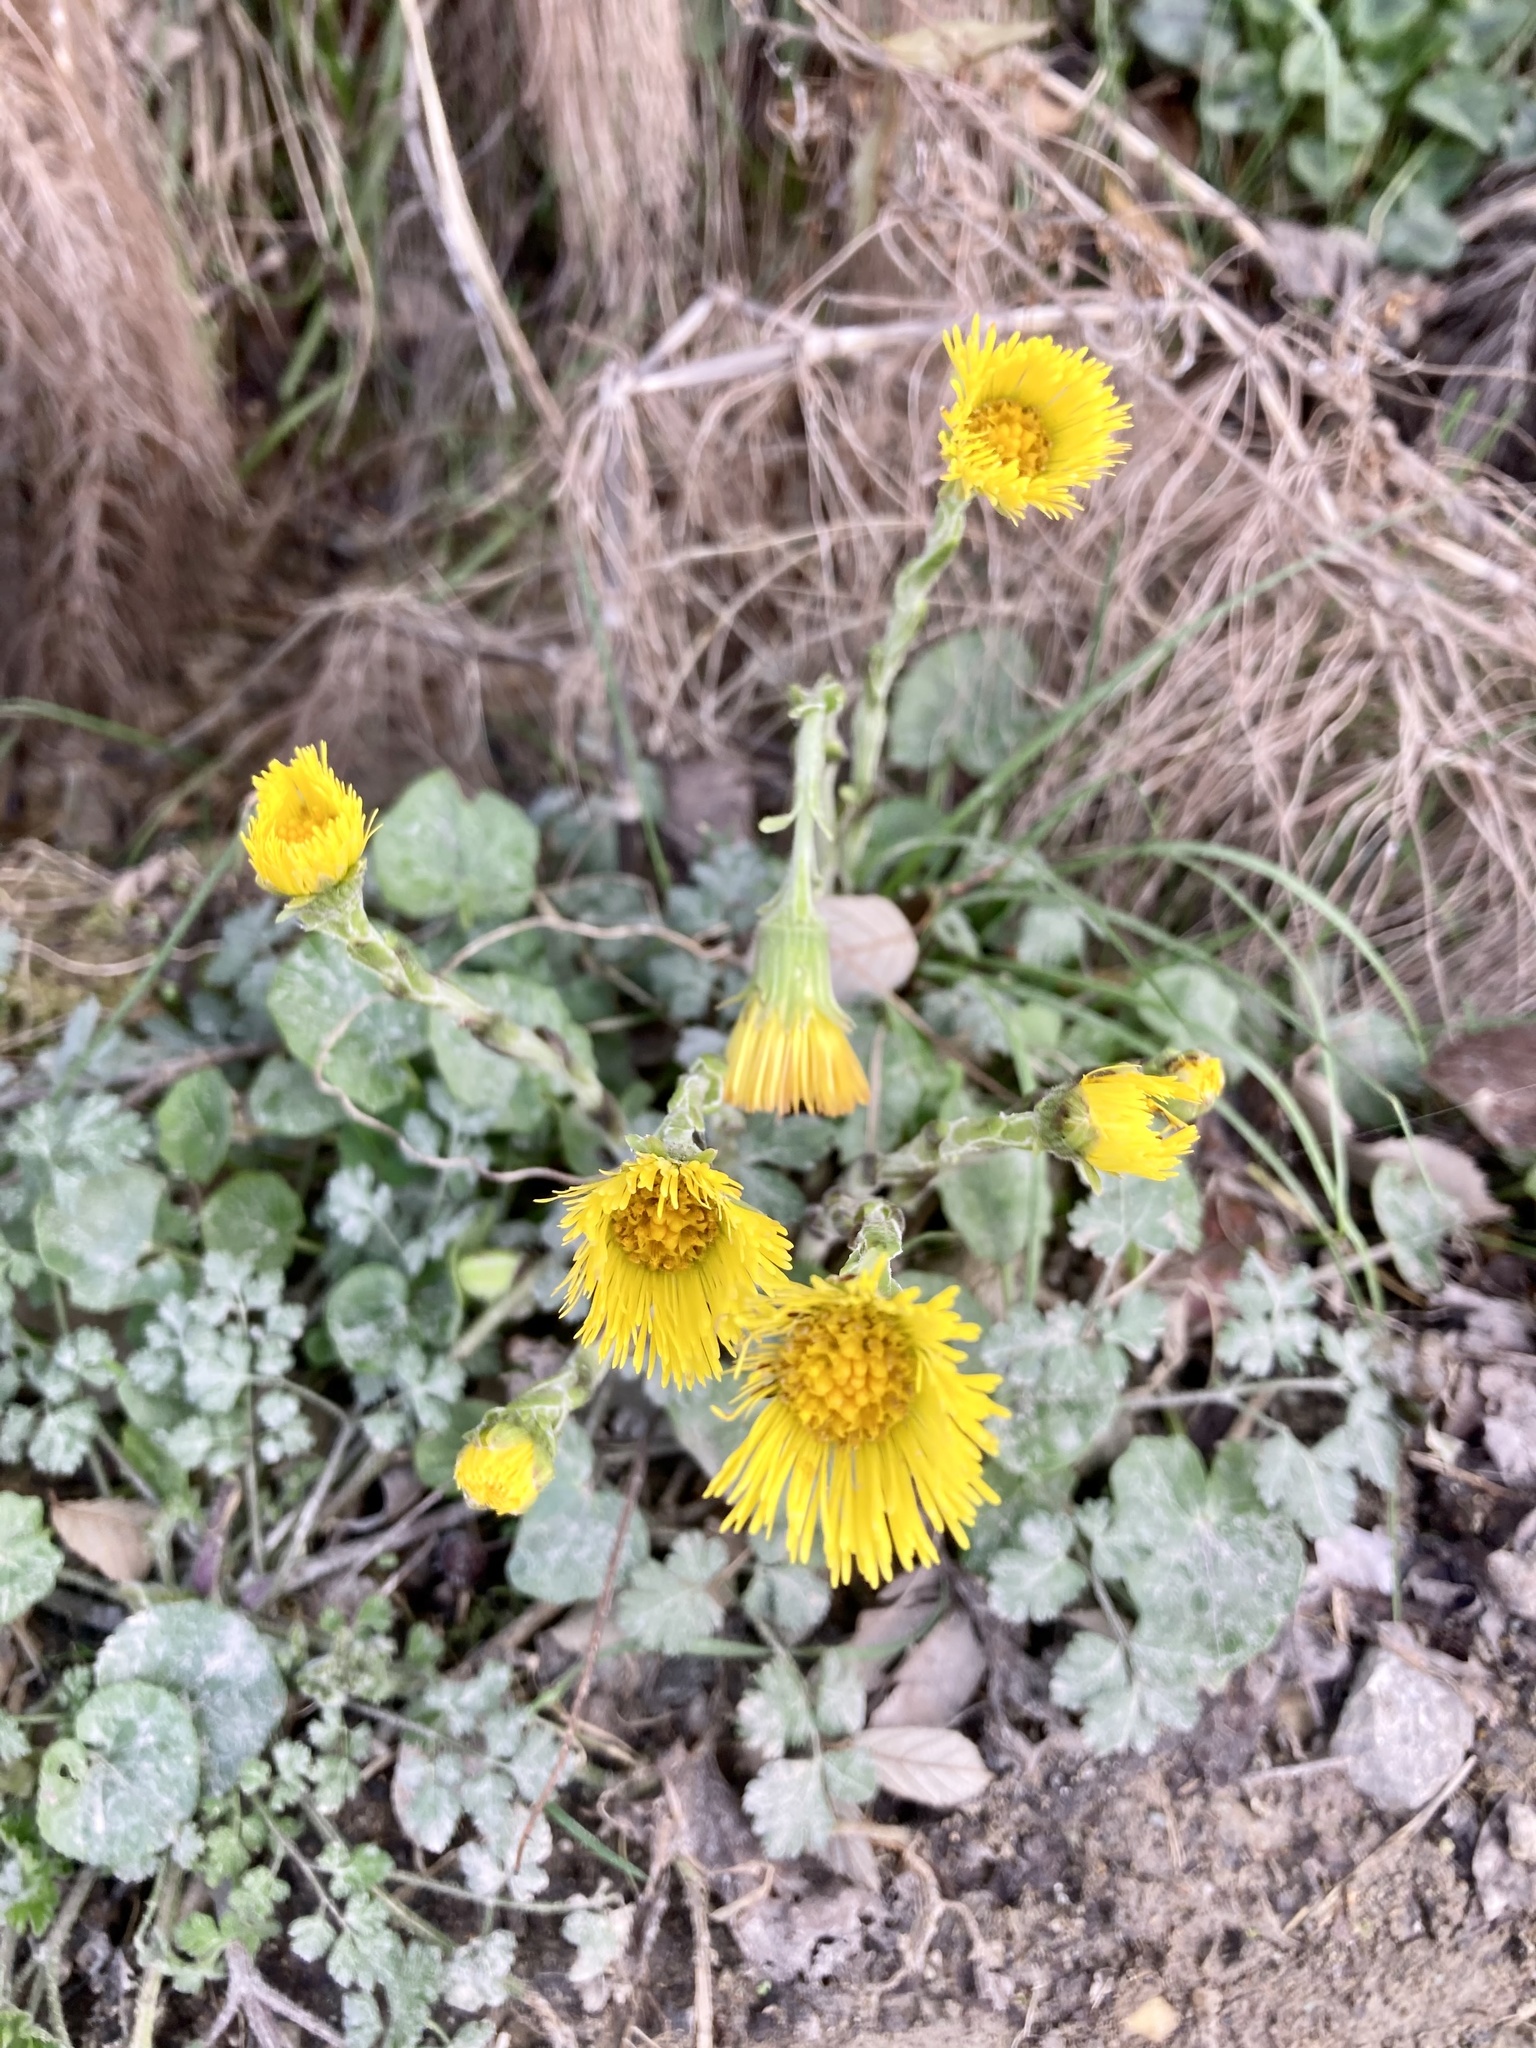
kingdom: Plantae
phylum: Tracheophyta
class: Magnoliopsida
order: Asterales
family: Asteraceae
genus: Tussilago
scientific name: Tussilago farfara
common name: Coltsfoot
